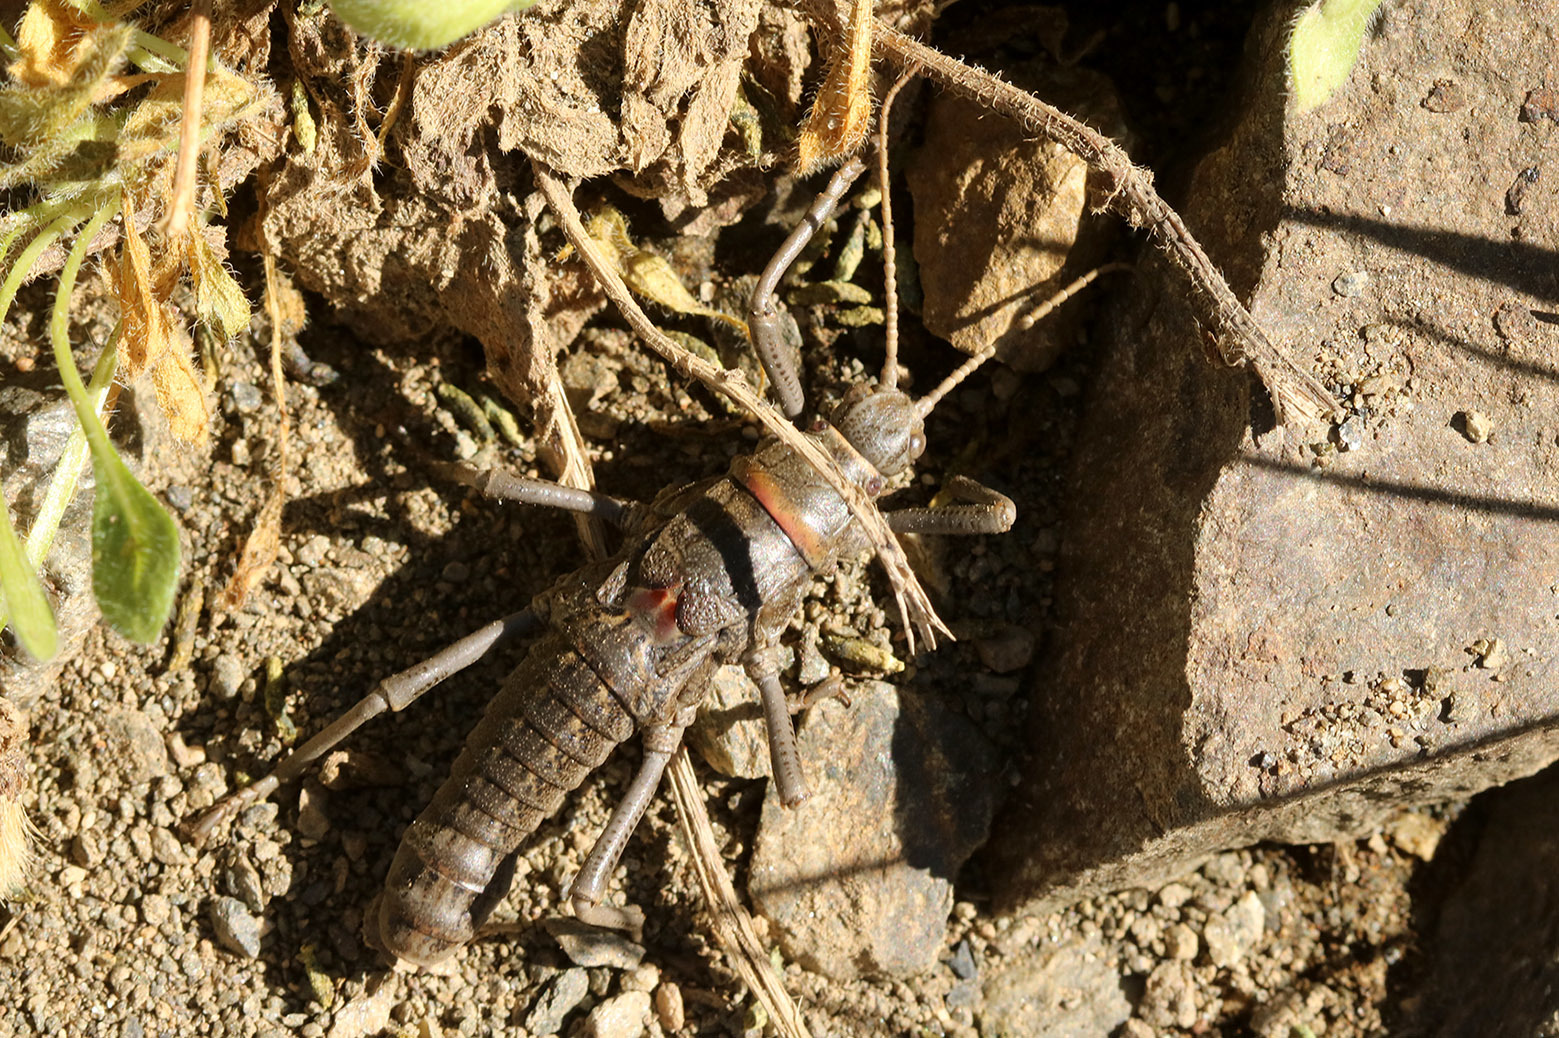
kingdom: Animalia
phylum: Arthropoda
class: Insecta
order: Phasmida
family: Agathemeridae
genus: Agathemera
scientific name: Agathemera claraziana
